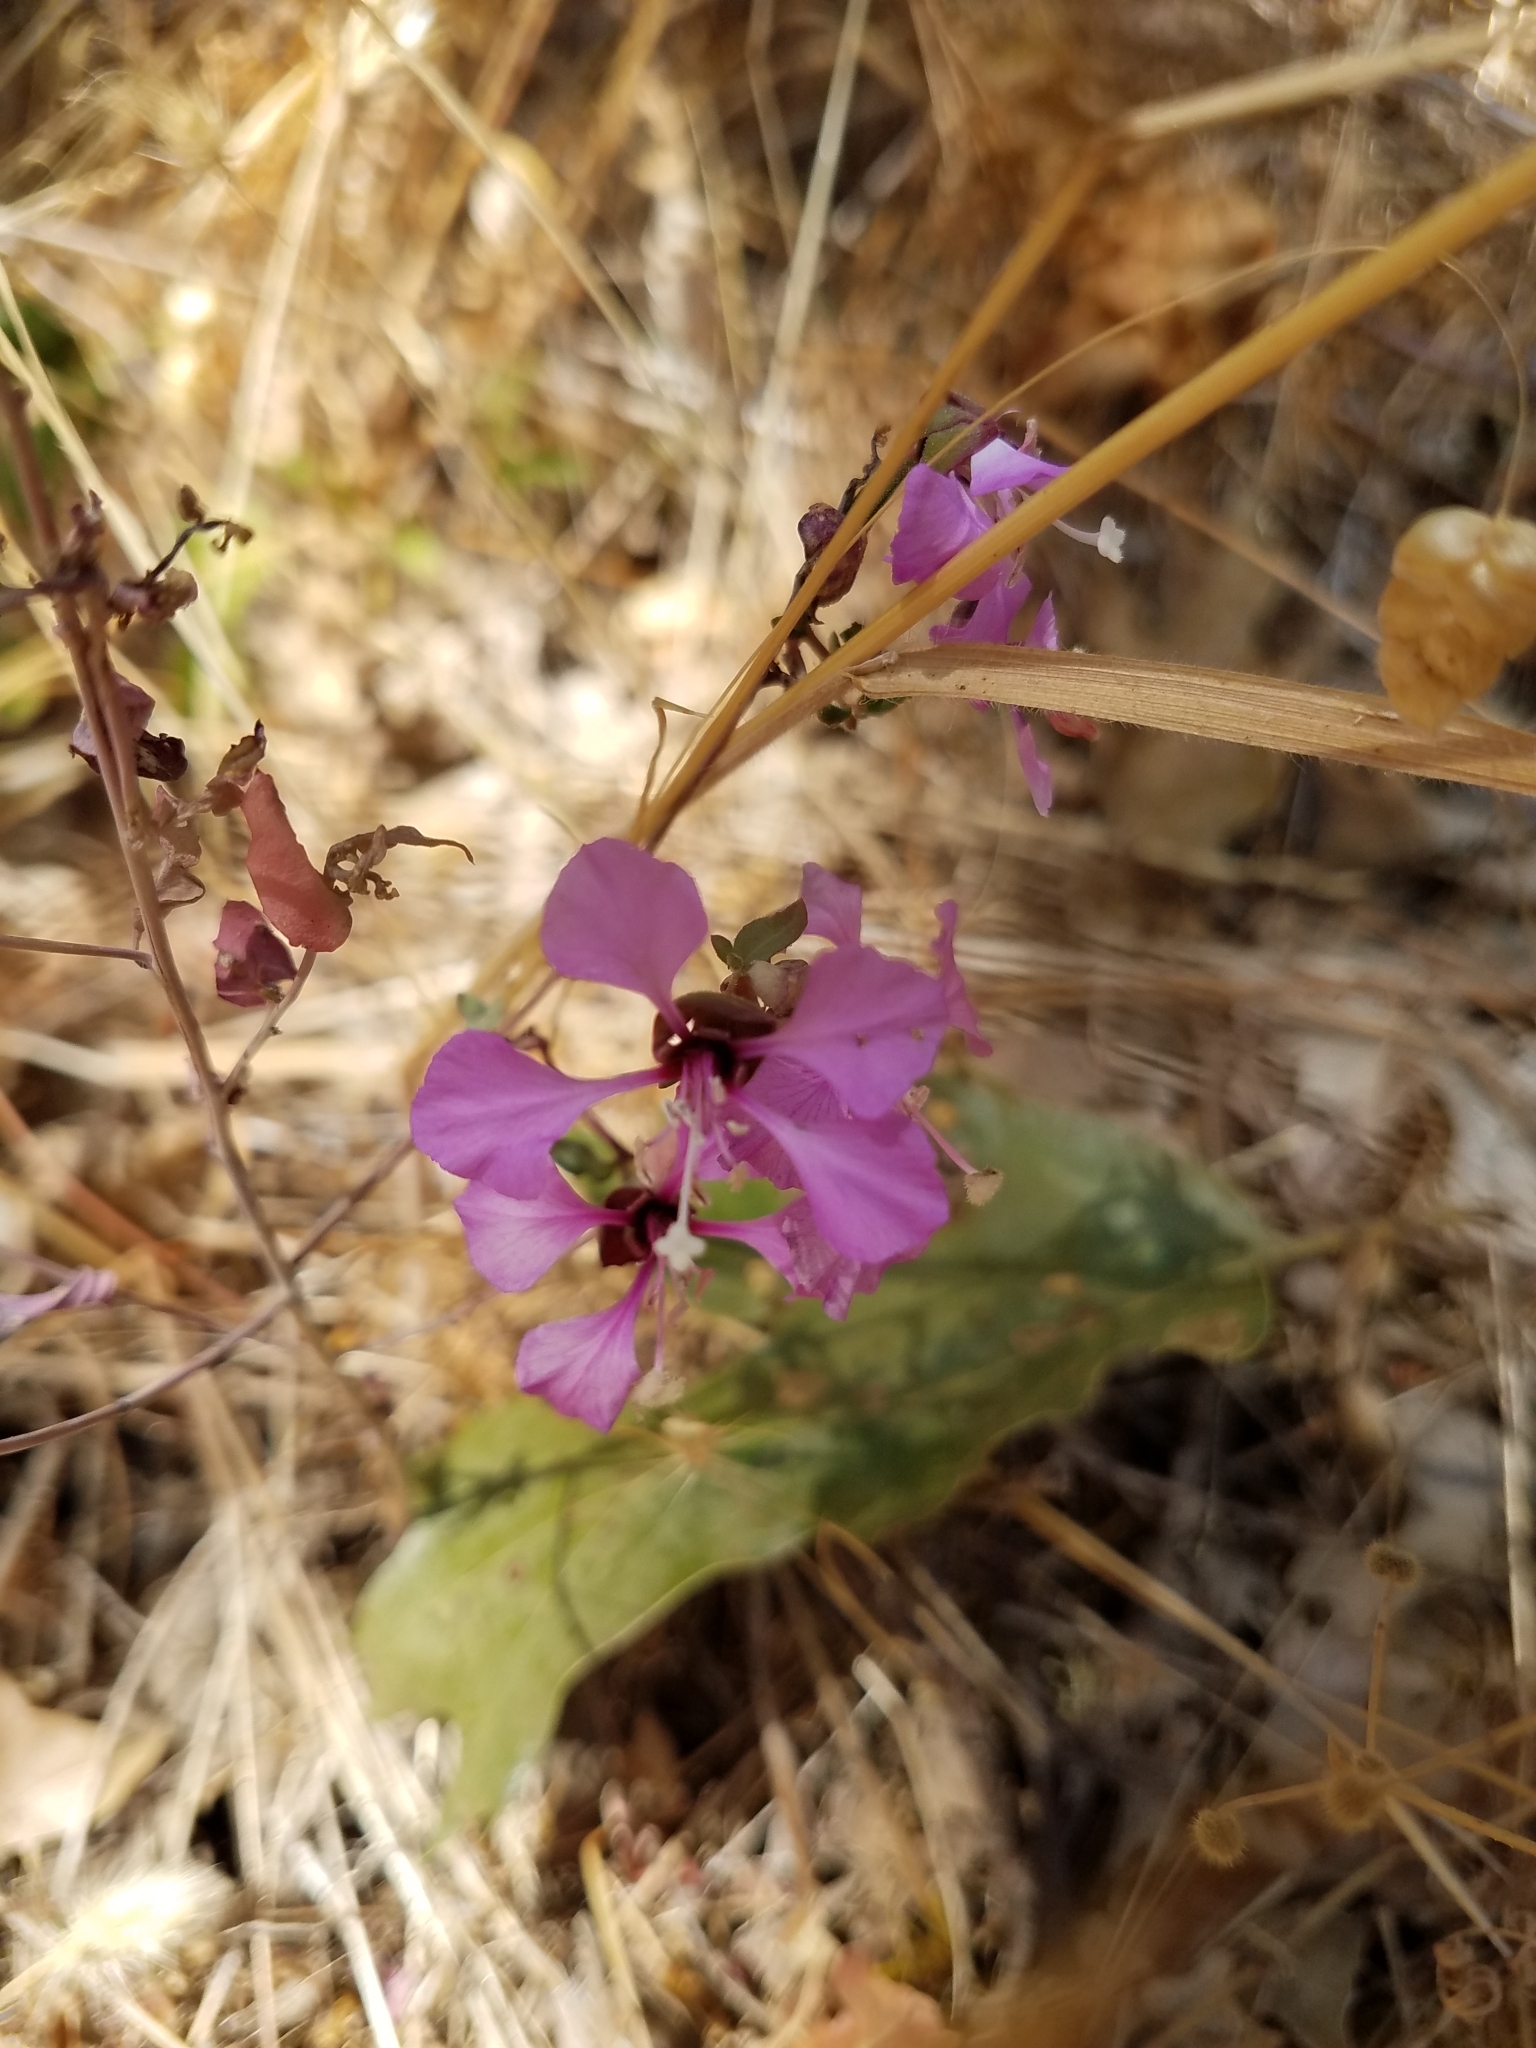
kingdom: Plantae
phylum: Tracheophyta
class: Magnoliopsida
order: Myrtales
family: Onagraceae
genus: Clarkia
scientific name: Clarkia unguiculata
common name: Clarkia
